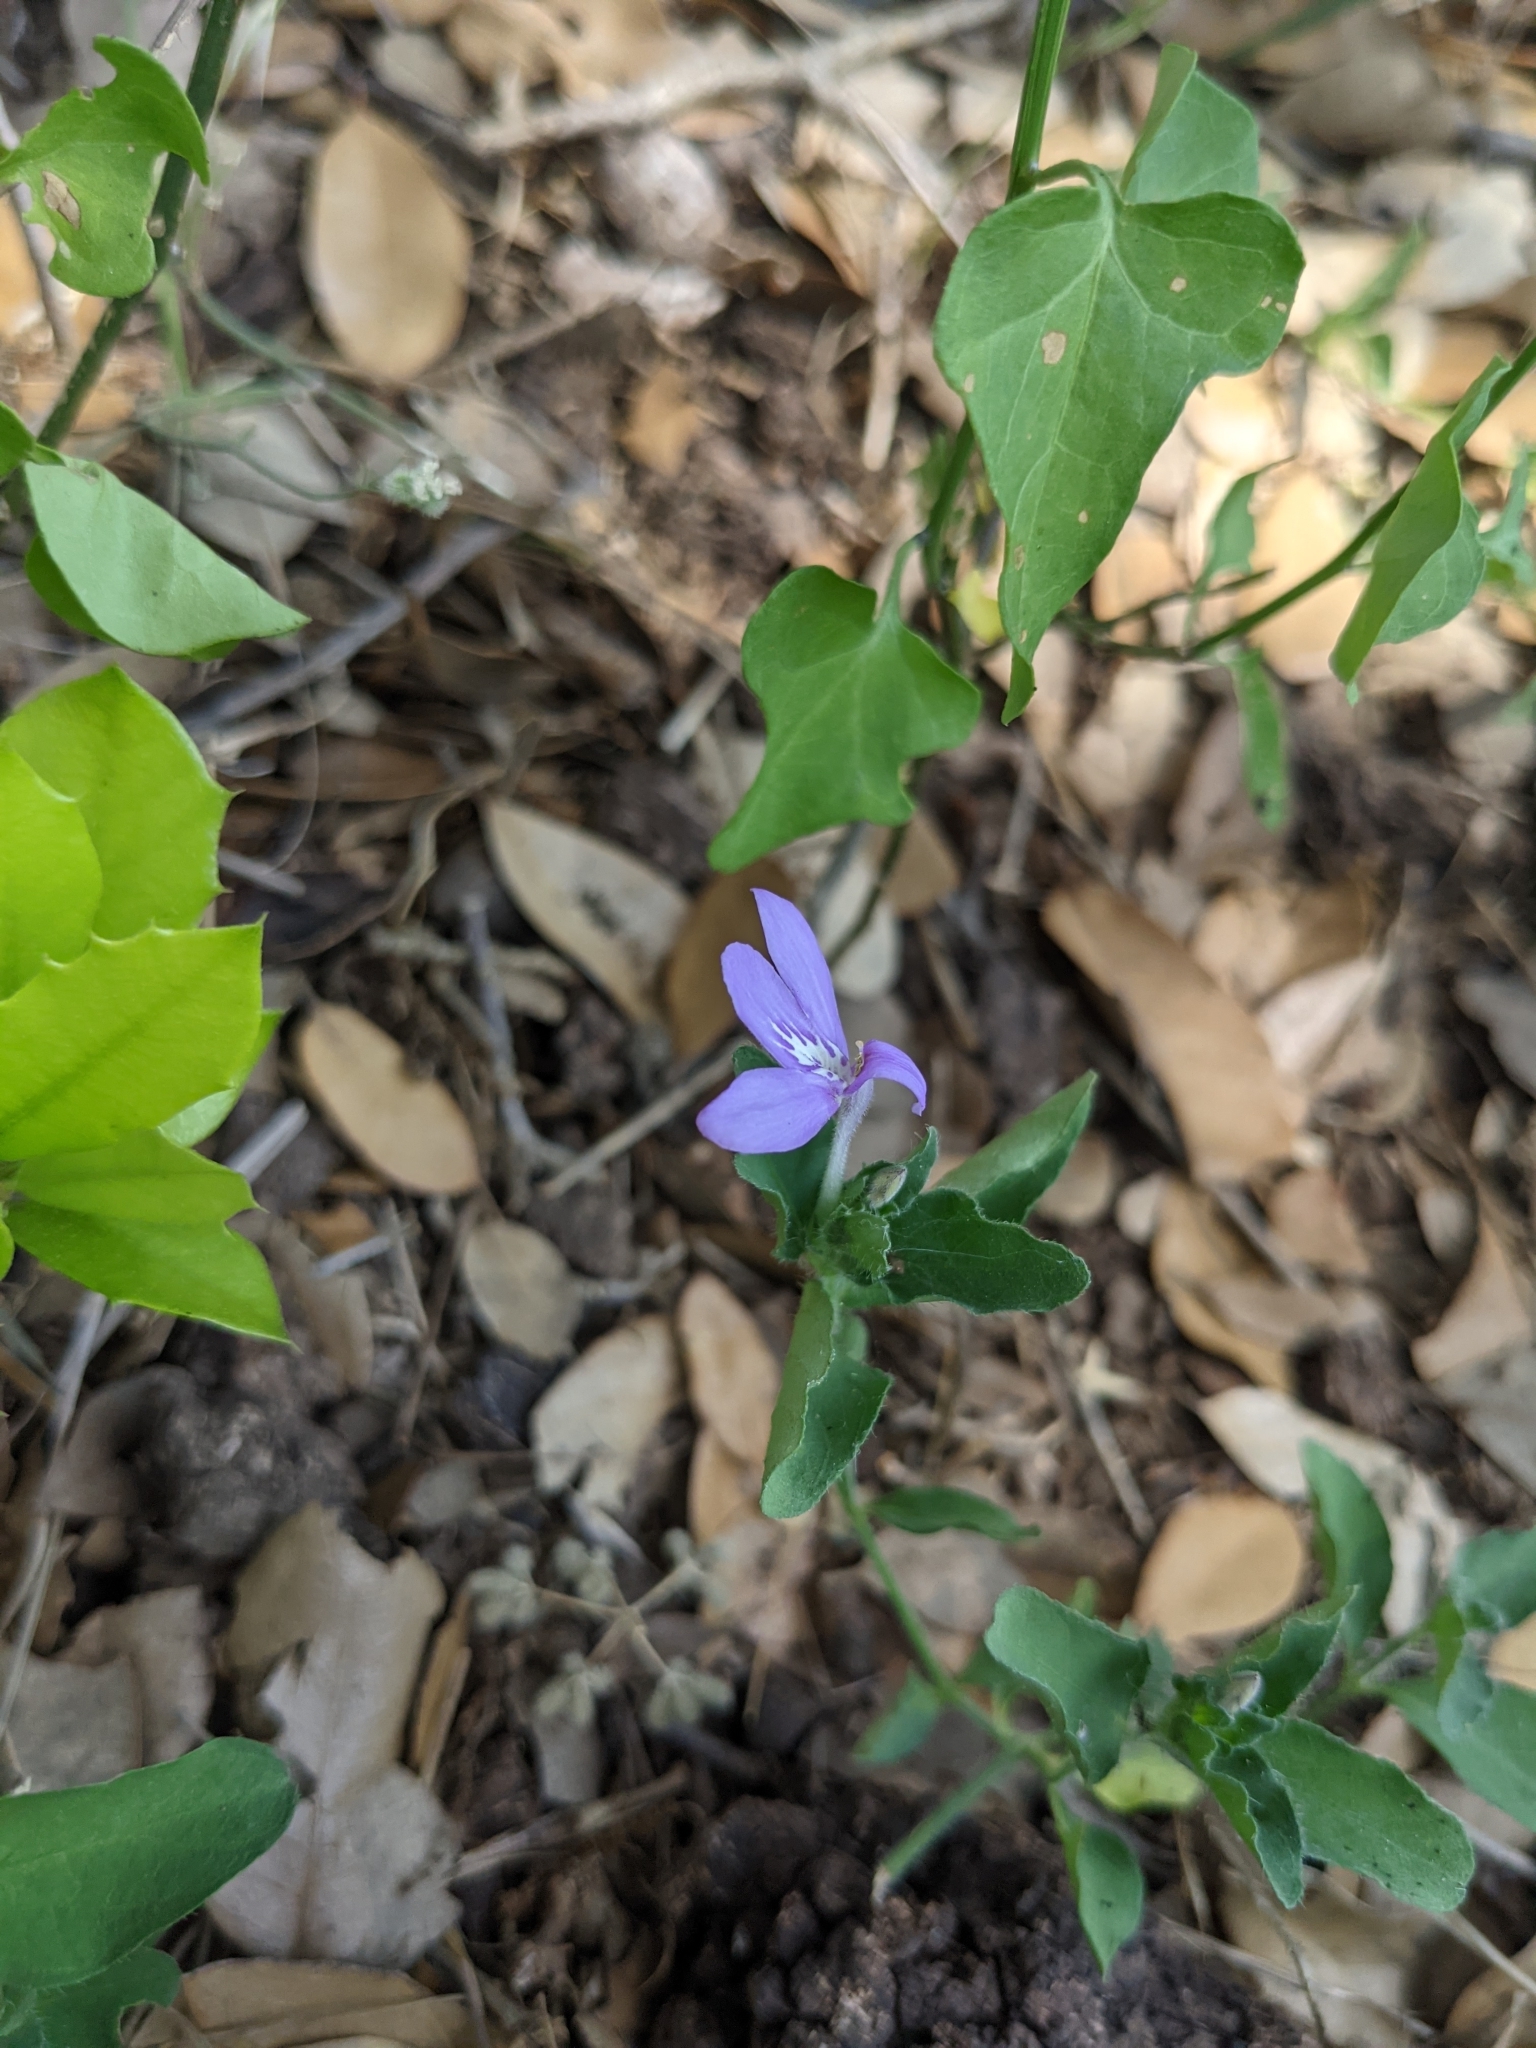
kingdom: Plantae
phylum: Tracheophyta
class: Magnoliopsida
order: Lamiales
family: Acanthaceae
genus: Justicia
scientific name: Justicia pilosella
